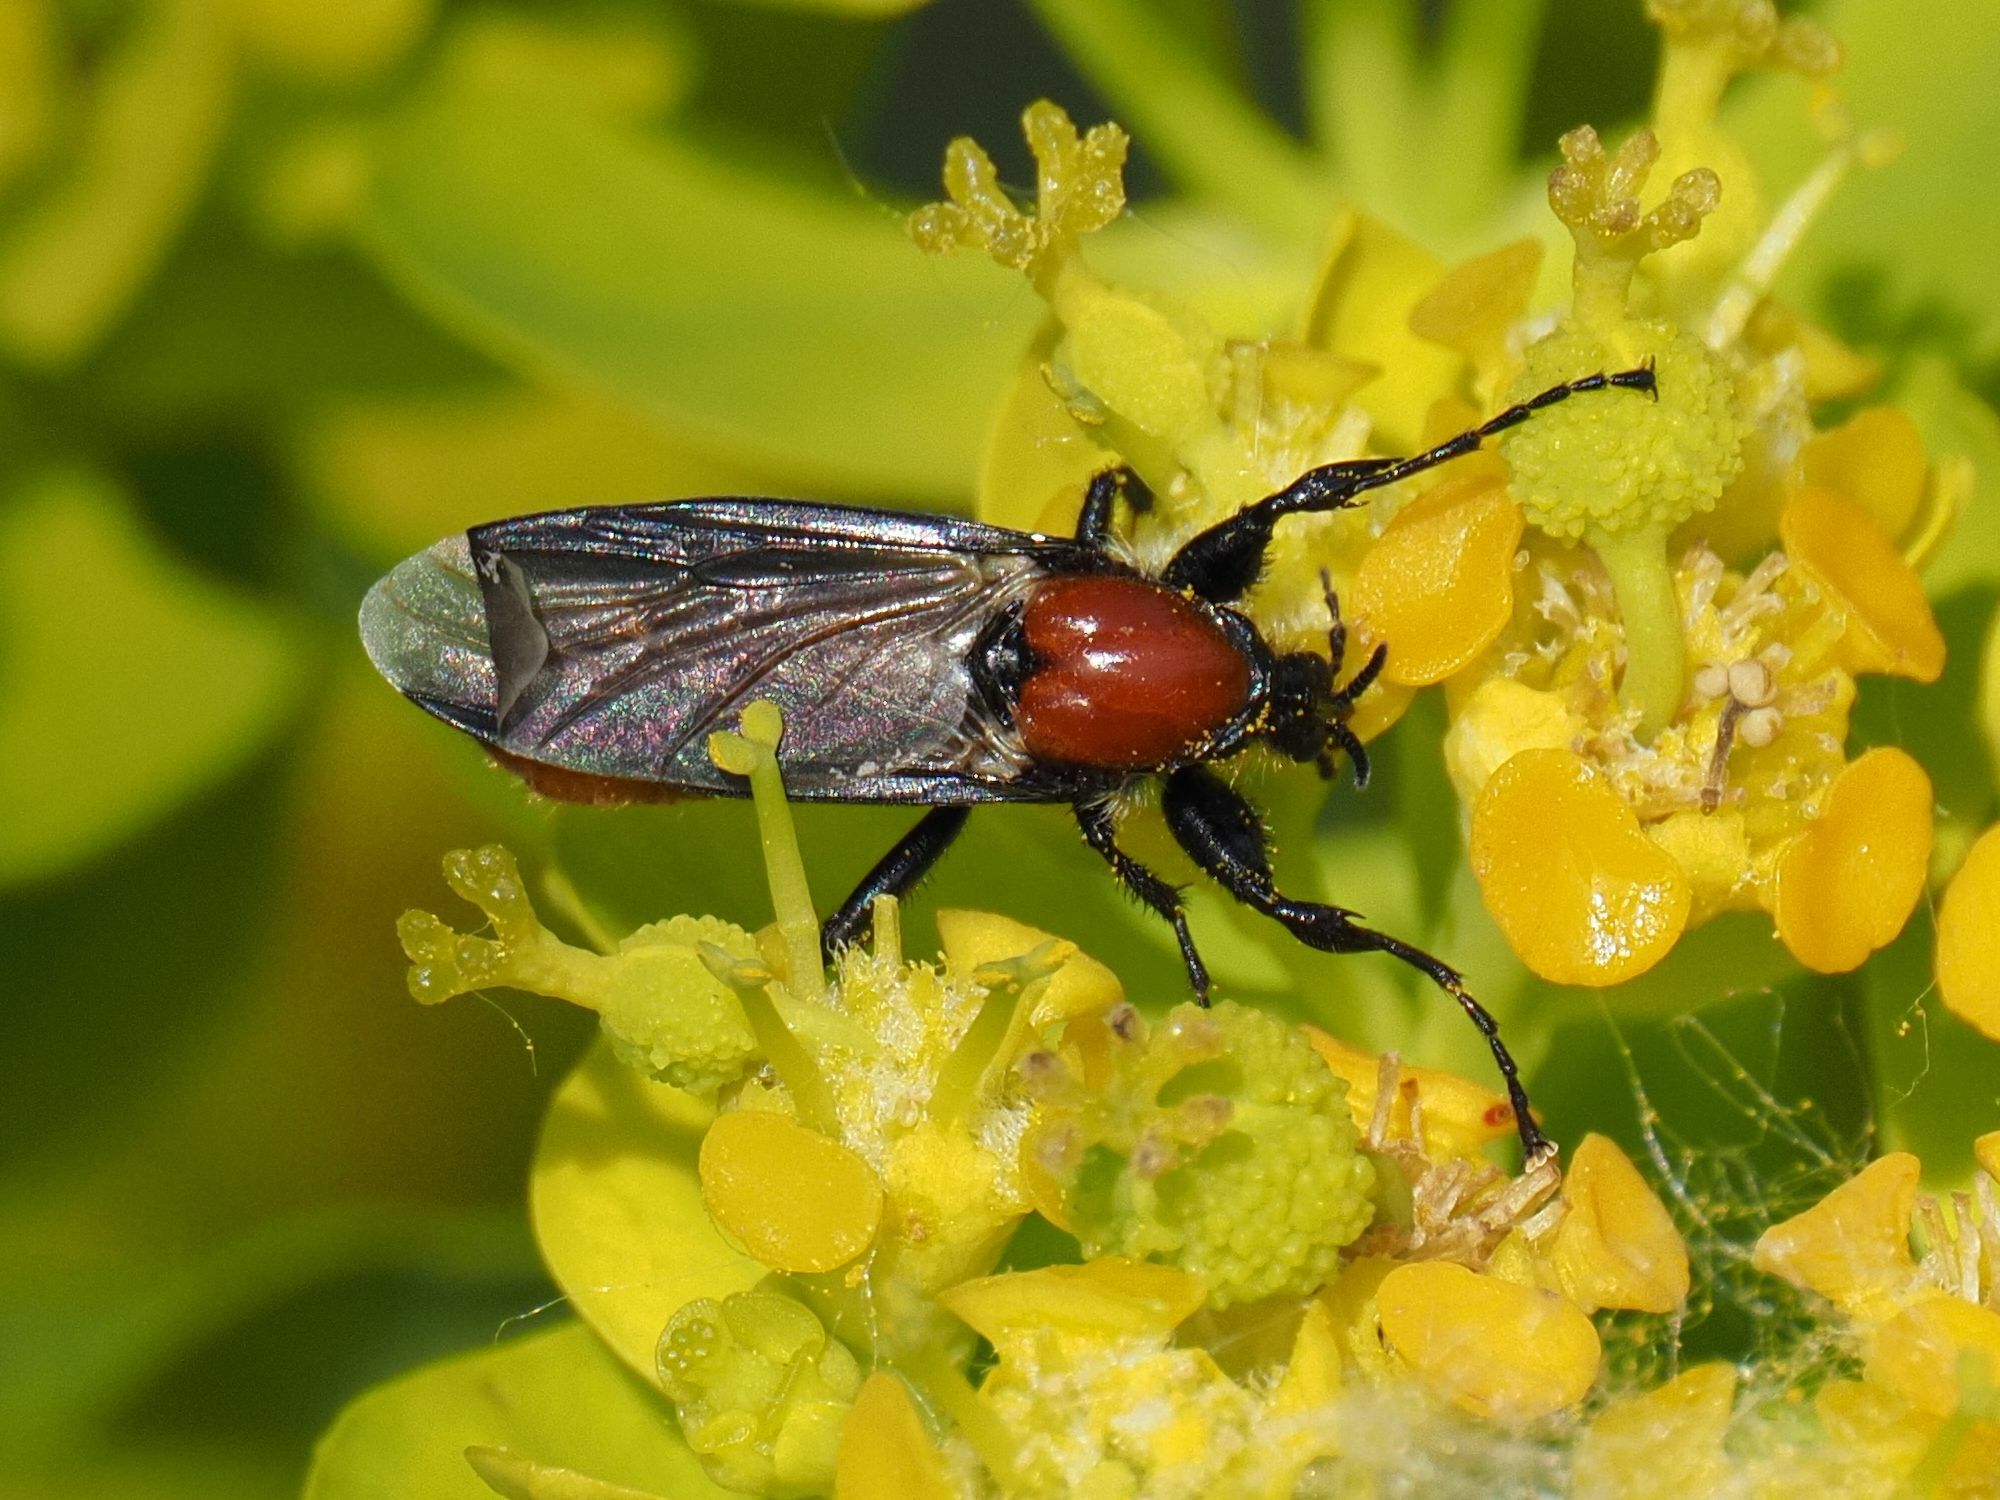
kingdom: Animalia
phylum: Arthropoda
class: Insecta
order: Diptera
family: Bibionidae
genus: Bibio
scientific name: Bibio hortulanus
